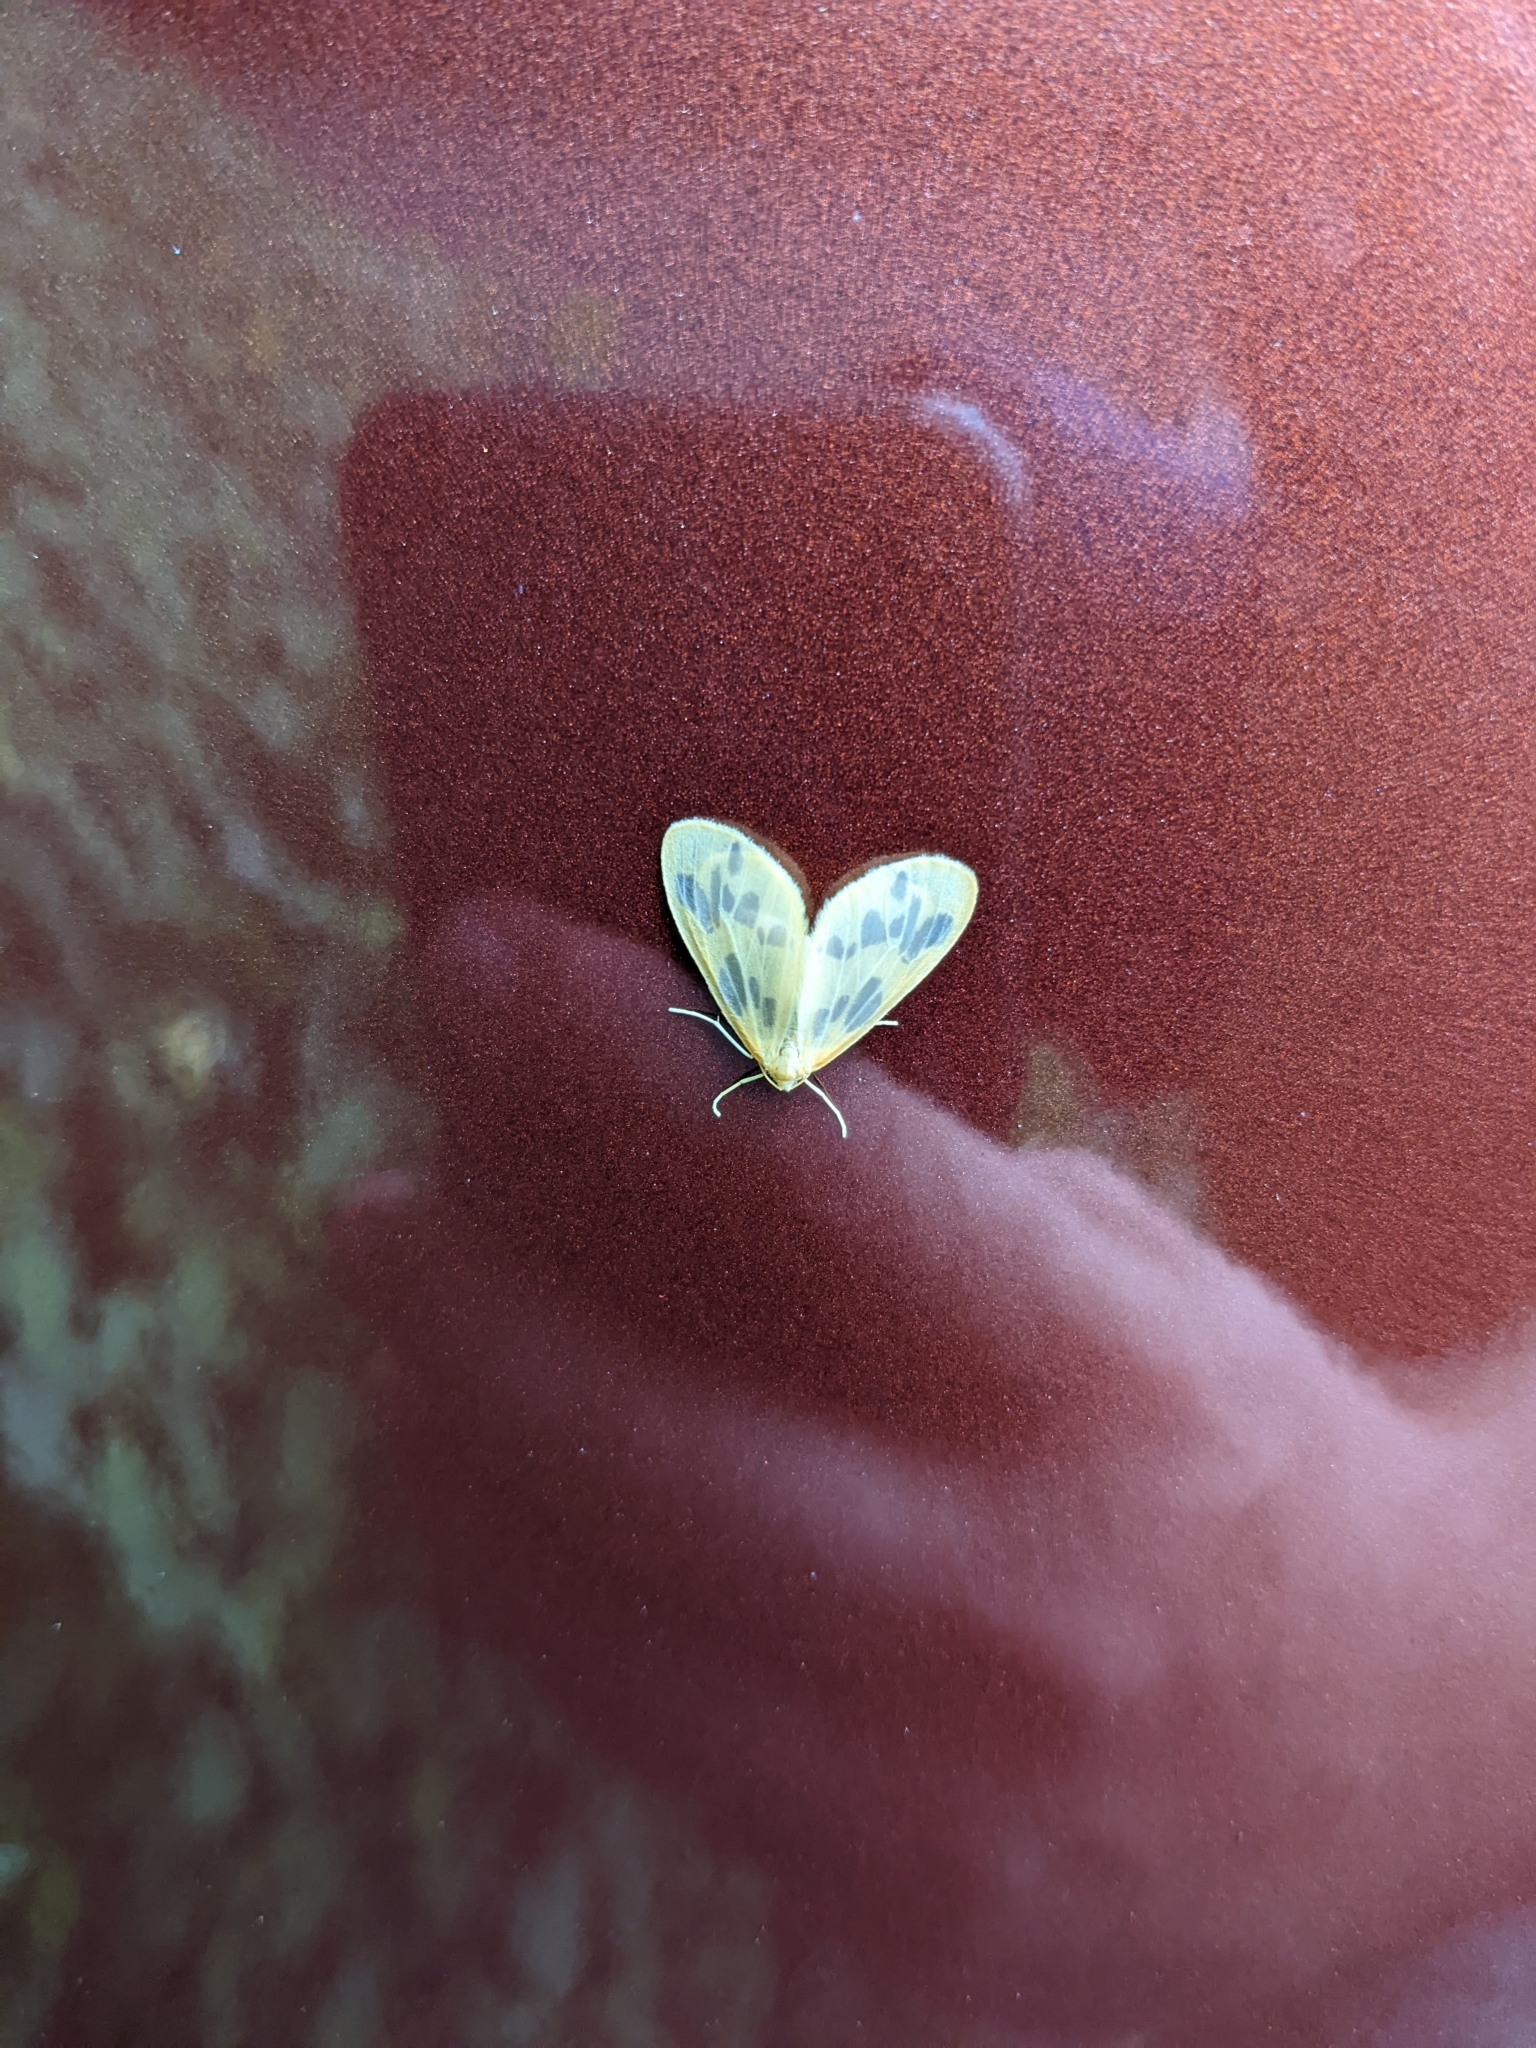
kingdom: Animalia
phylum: Arthropoda
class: Insecta
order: Lepidoptera
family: Geometridae
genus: Eubaphe
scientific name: Eubaphe mendica
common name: Beggar
